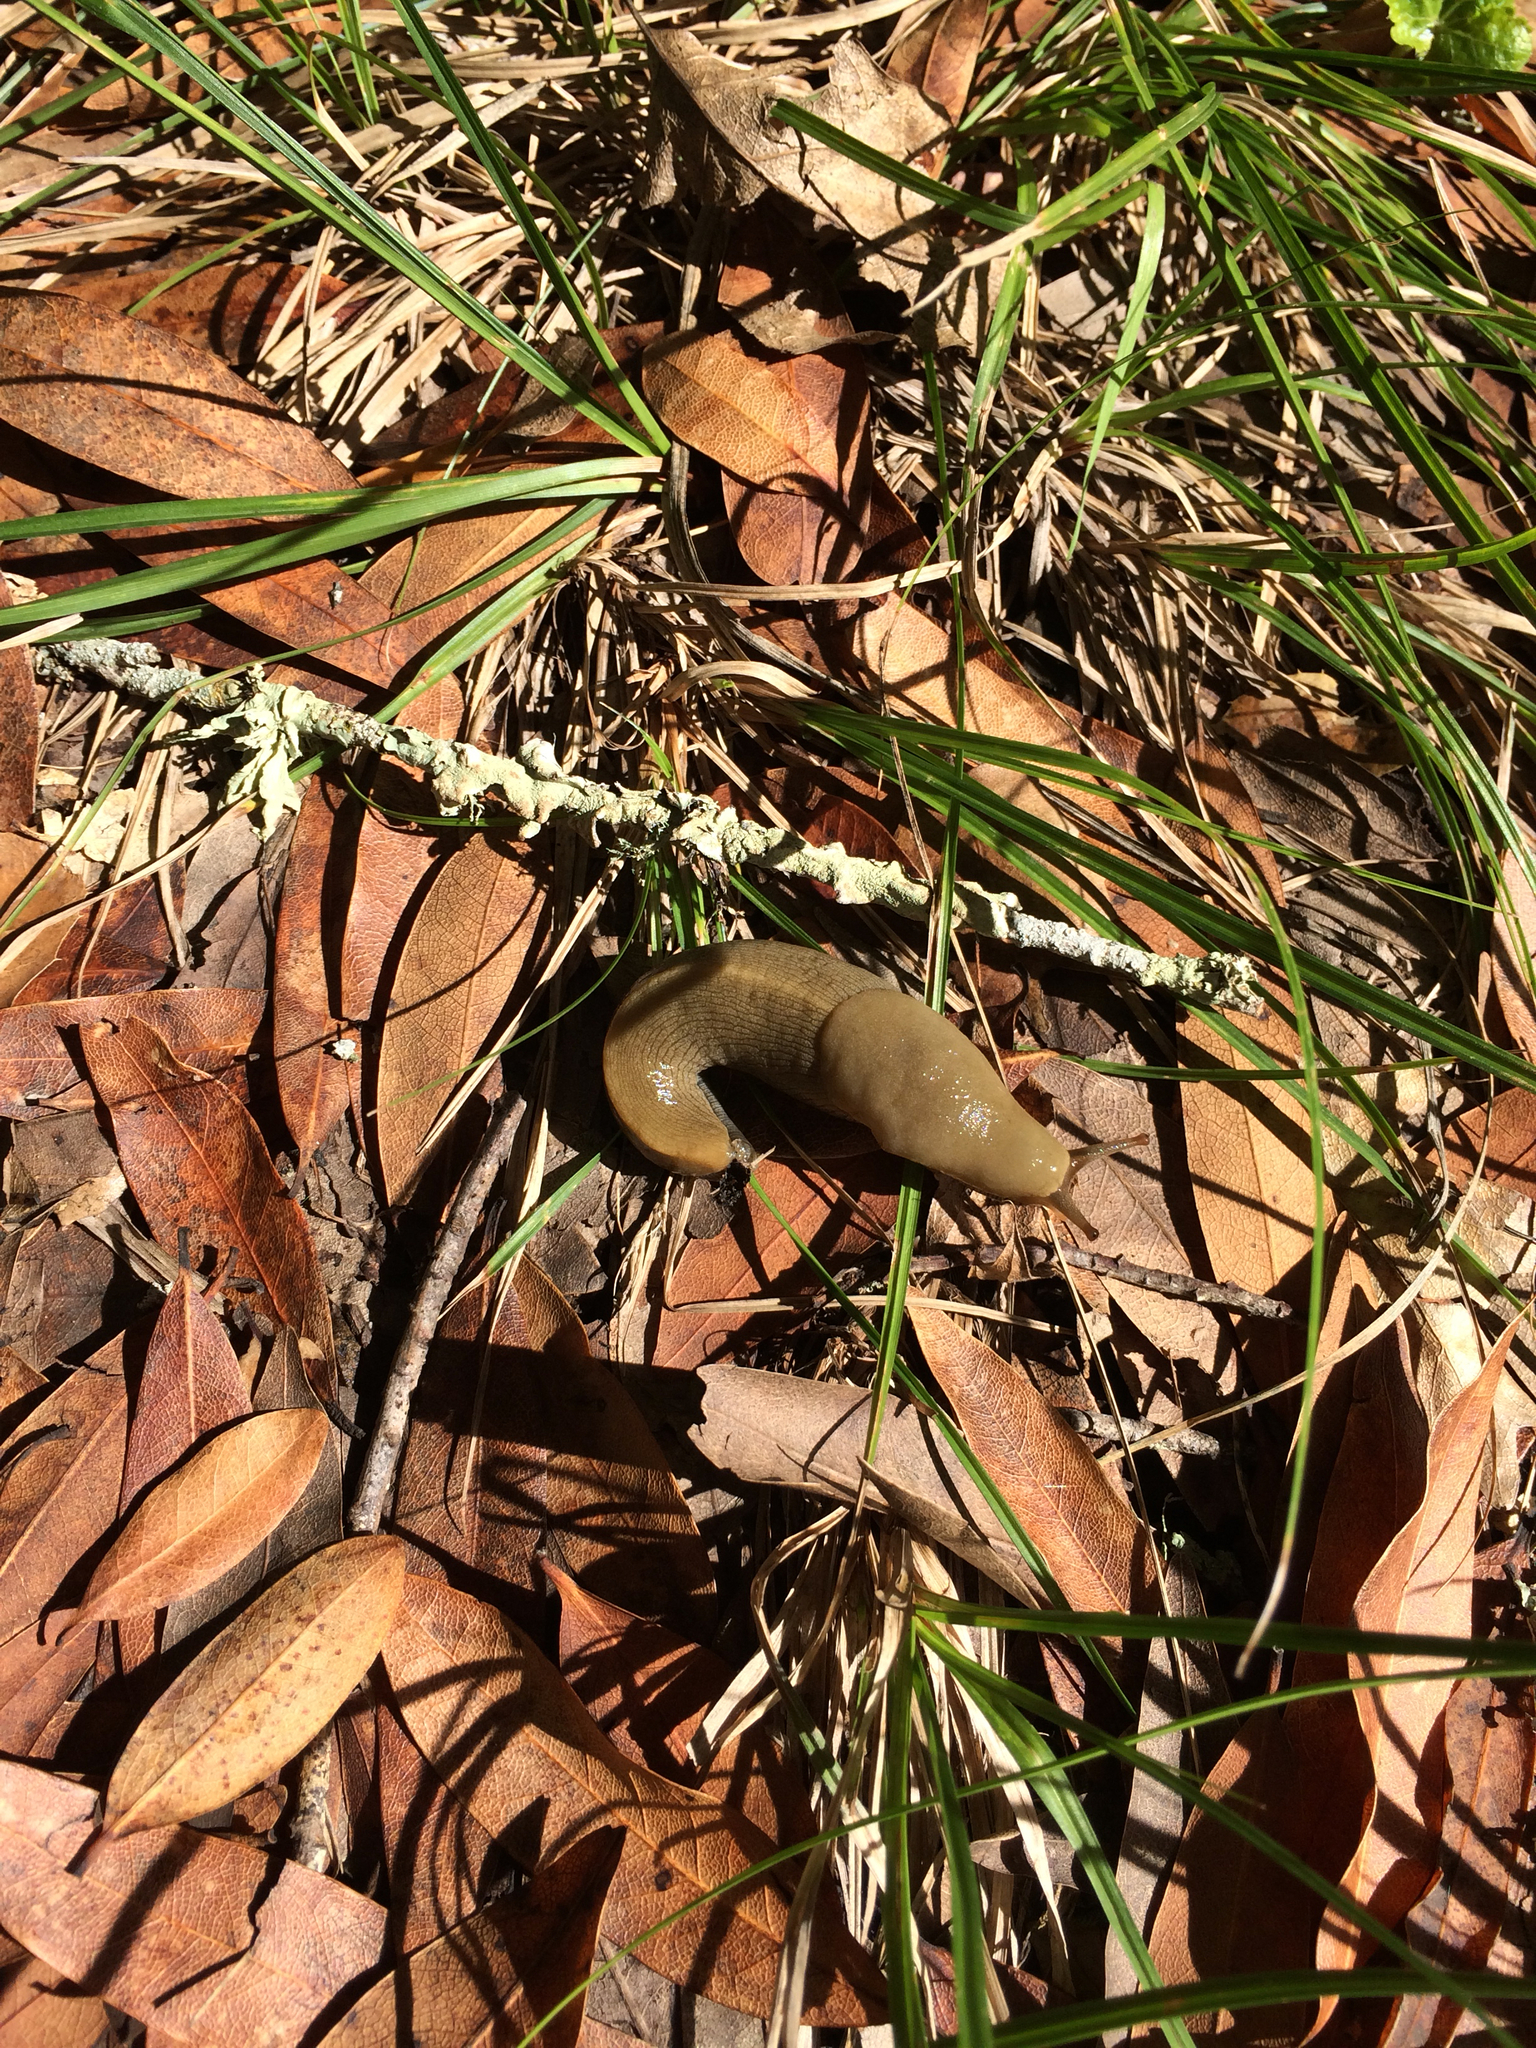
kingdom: Animalia
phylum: Mollusca
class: Gastropoda
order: Stylommatophora
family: Ariolimacidae
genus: Ariolimax
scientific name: Ariolimax buttoni
